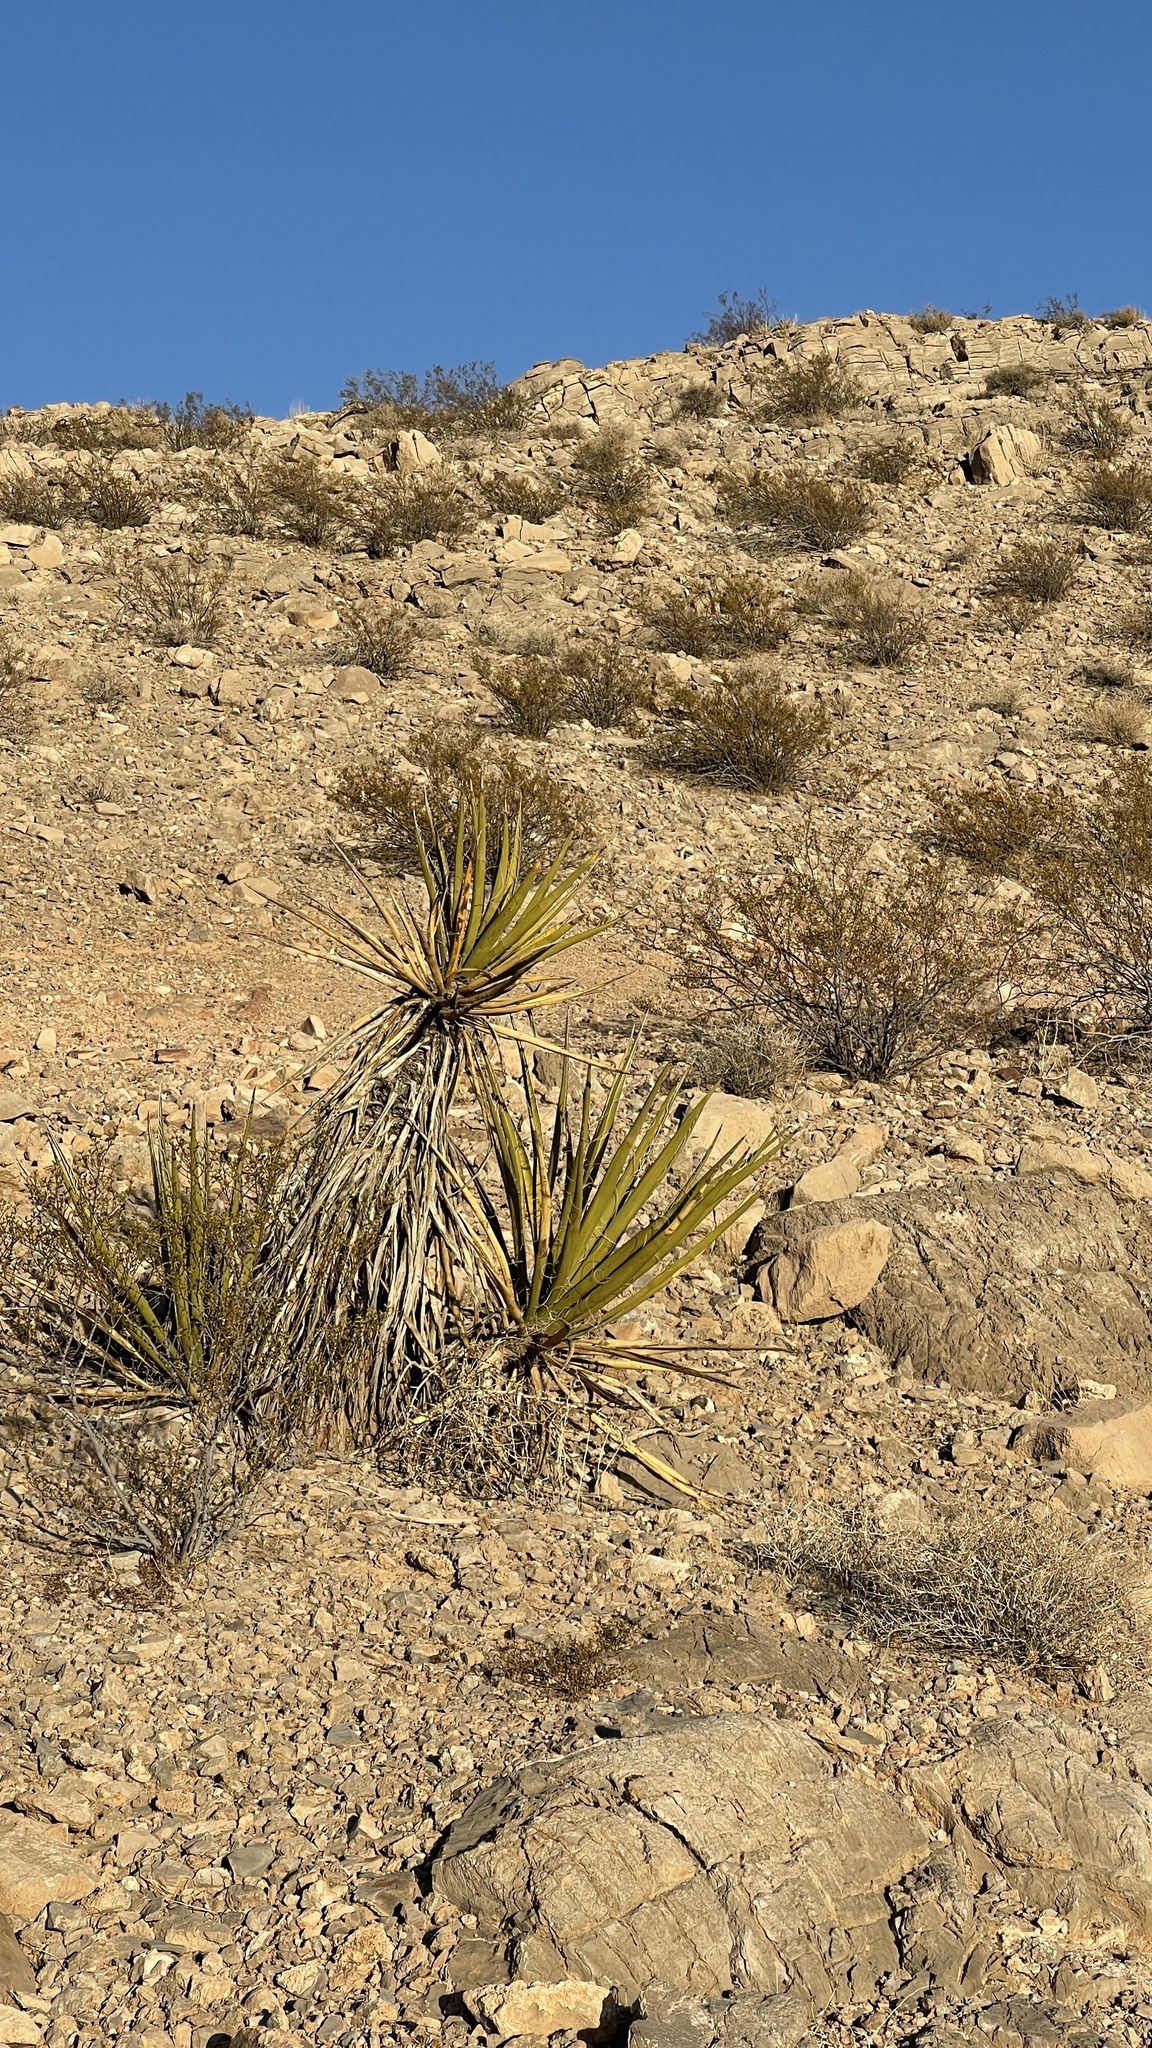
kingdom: Plantae
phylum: Tracheophyta
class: Liliopsida
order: Asparagales
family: Asparagaceae
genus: Yucca
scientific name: Yucca schidigera
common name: Mojave yucca
